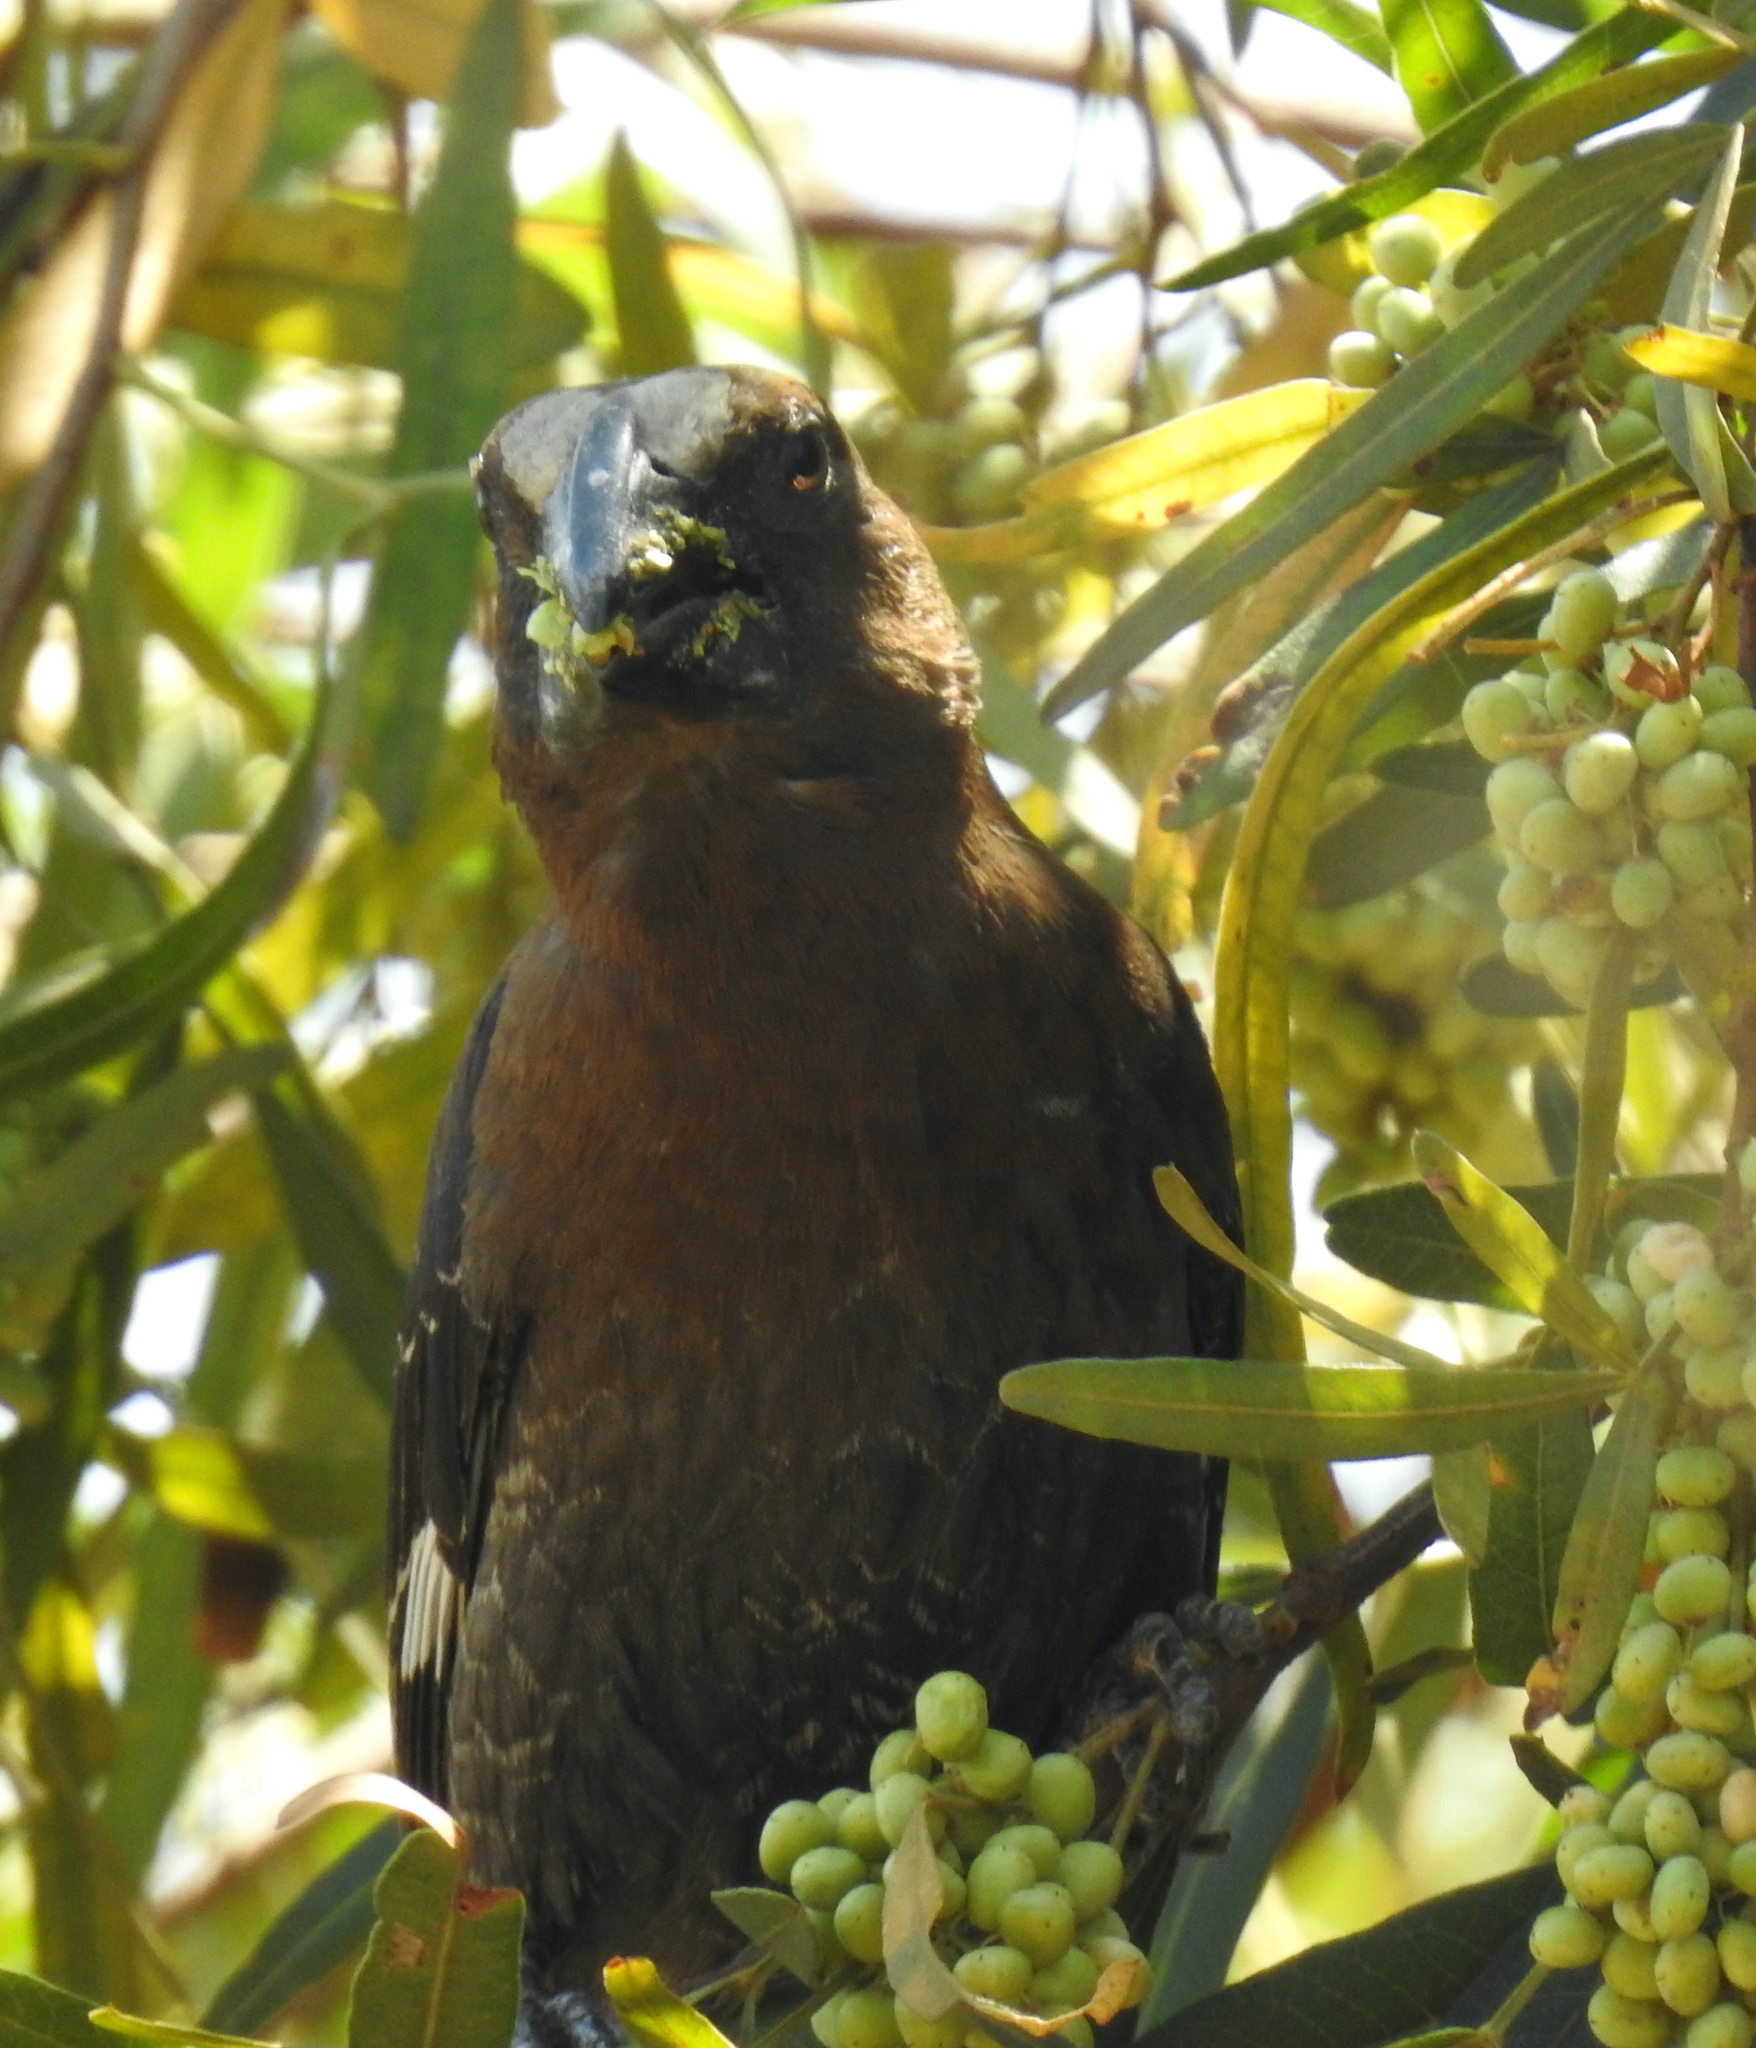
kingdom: Animalia
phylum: Chordata
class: Aves
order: Passeriformes
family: Ploceidae
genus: Amblyospiza
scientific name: Amblyospiza albifrons
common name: Thick-billed weaver
